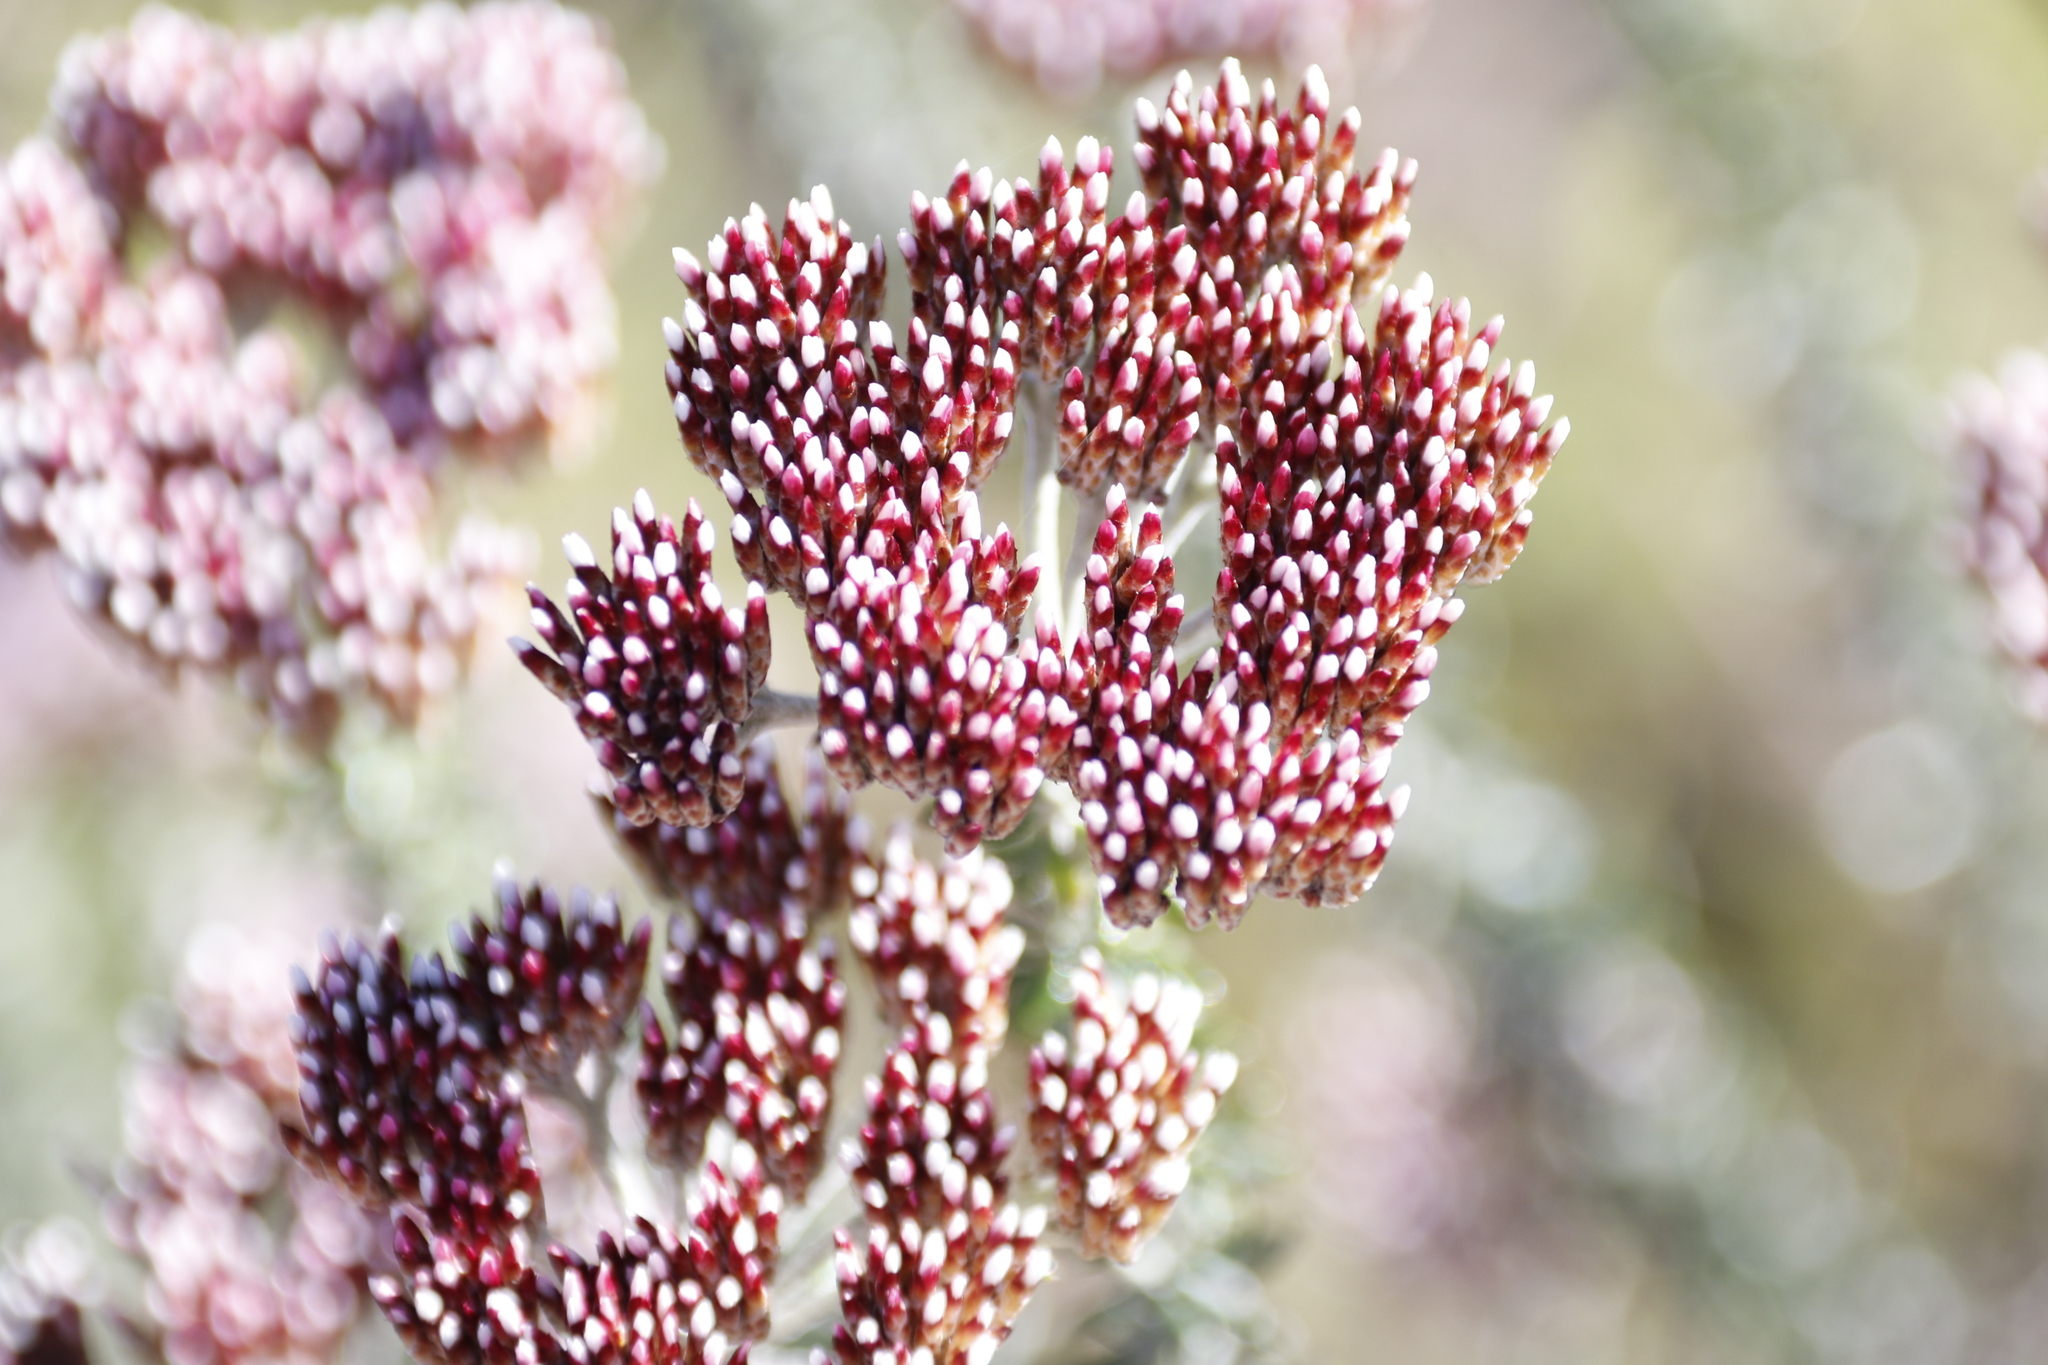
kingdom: Plantae
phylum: Tracheophyta
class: Magnoliopsida
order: Asterales
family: Asteraceae
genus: Metalasia
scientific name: Metalasia densa
